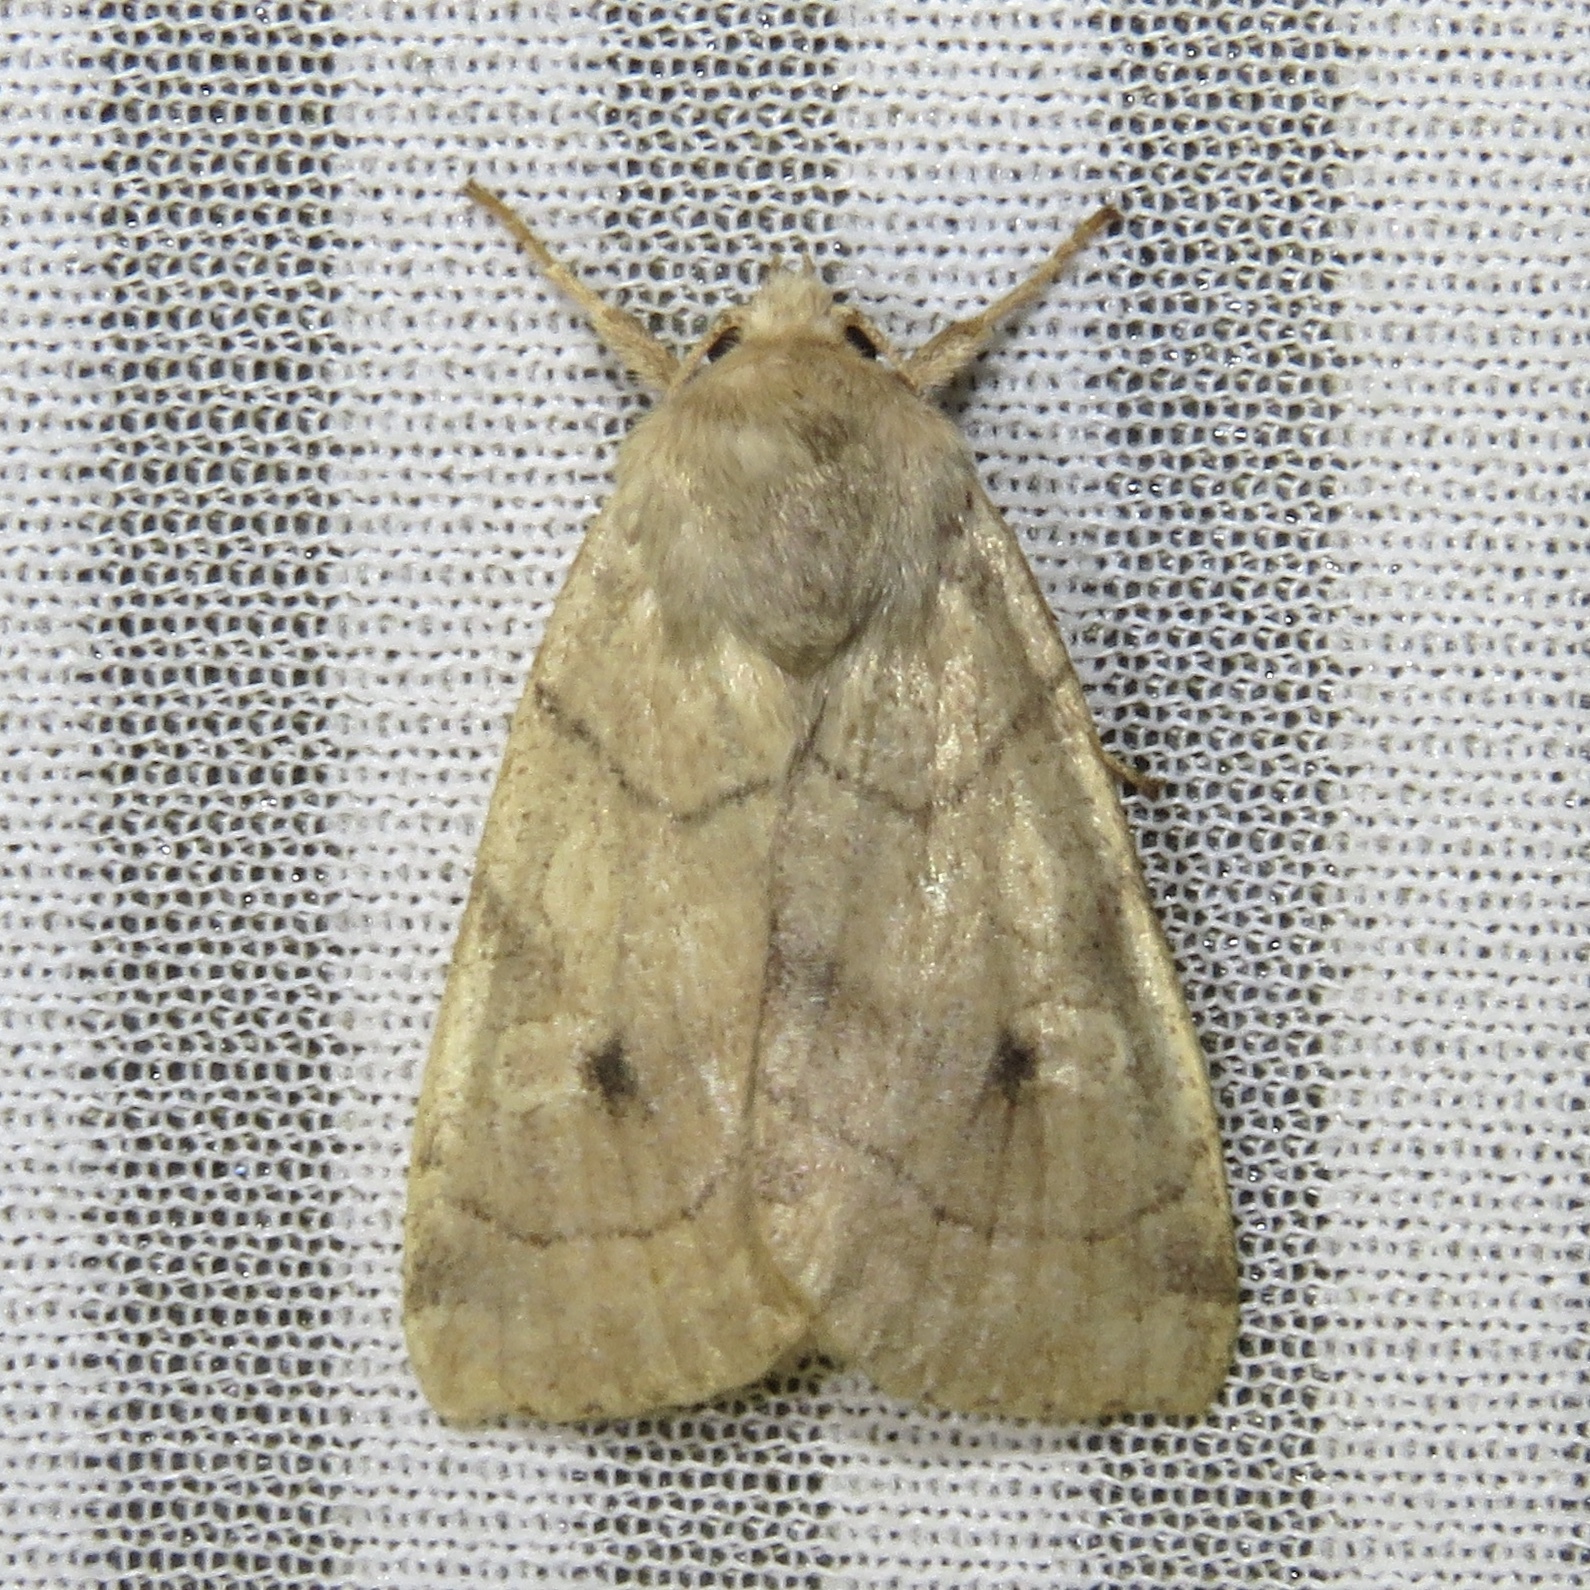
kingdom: Animalia
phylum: Arthropoda
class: Insecta
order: Lepidoptera
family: Noctuidae
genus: Enargia
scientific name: Enargia infumata
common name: Smoked sallow
